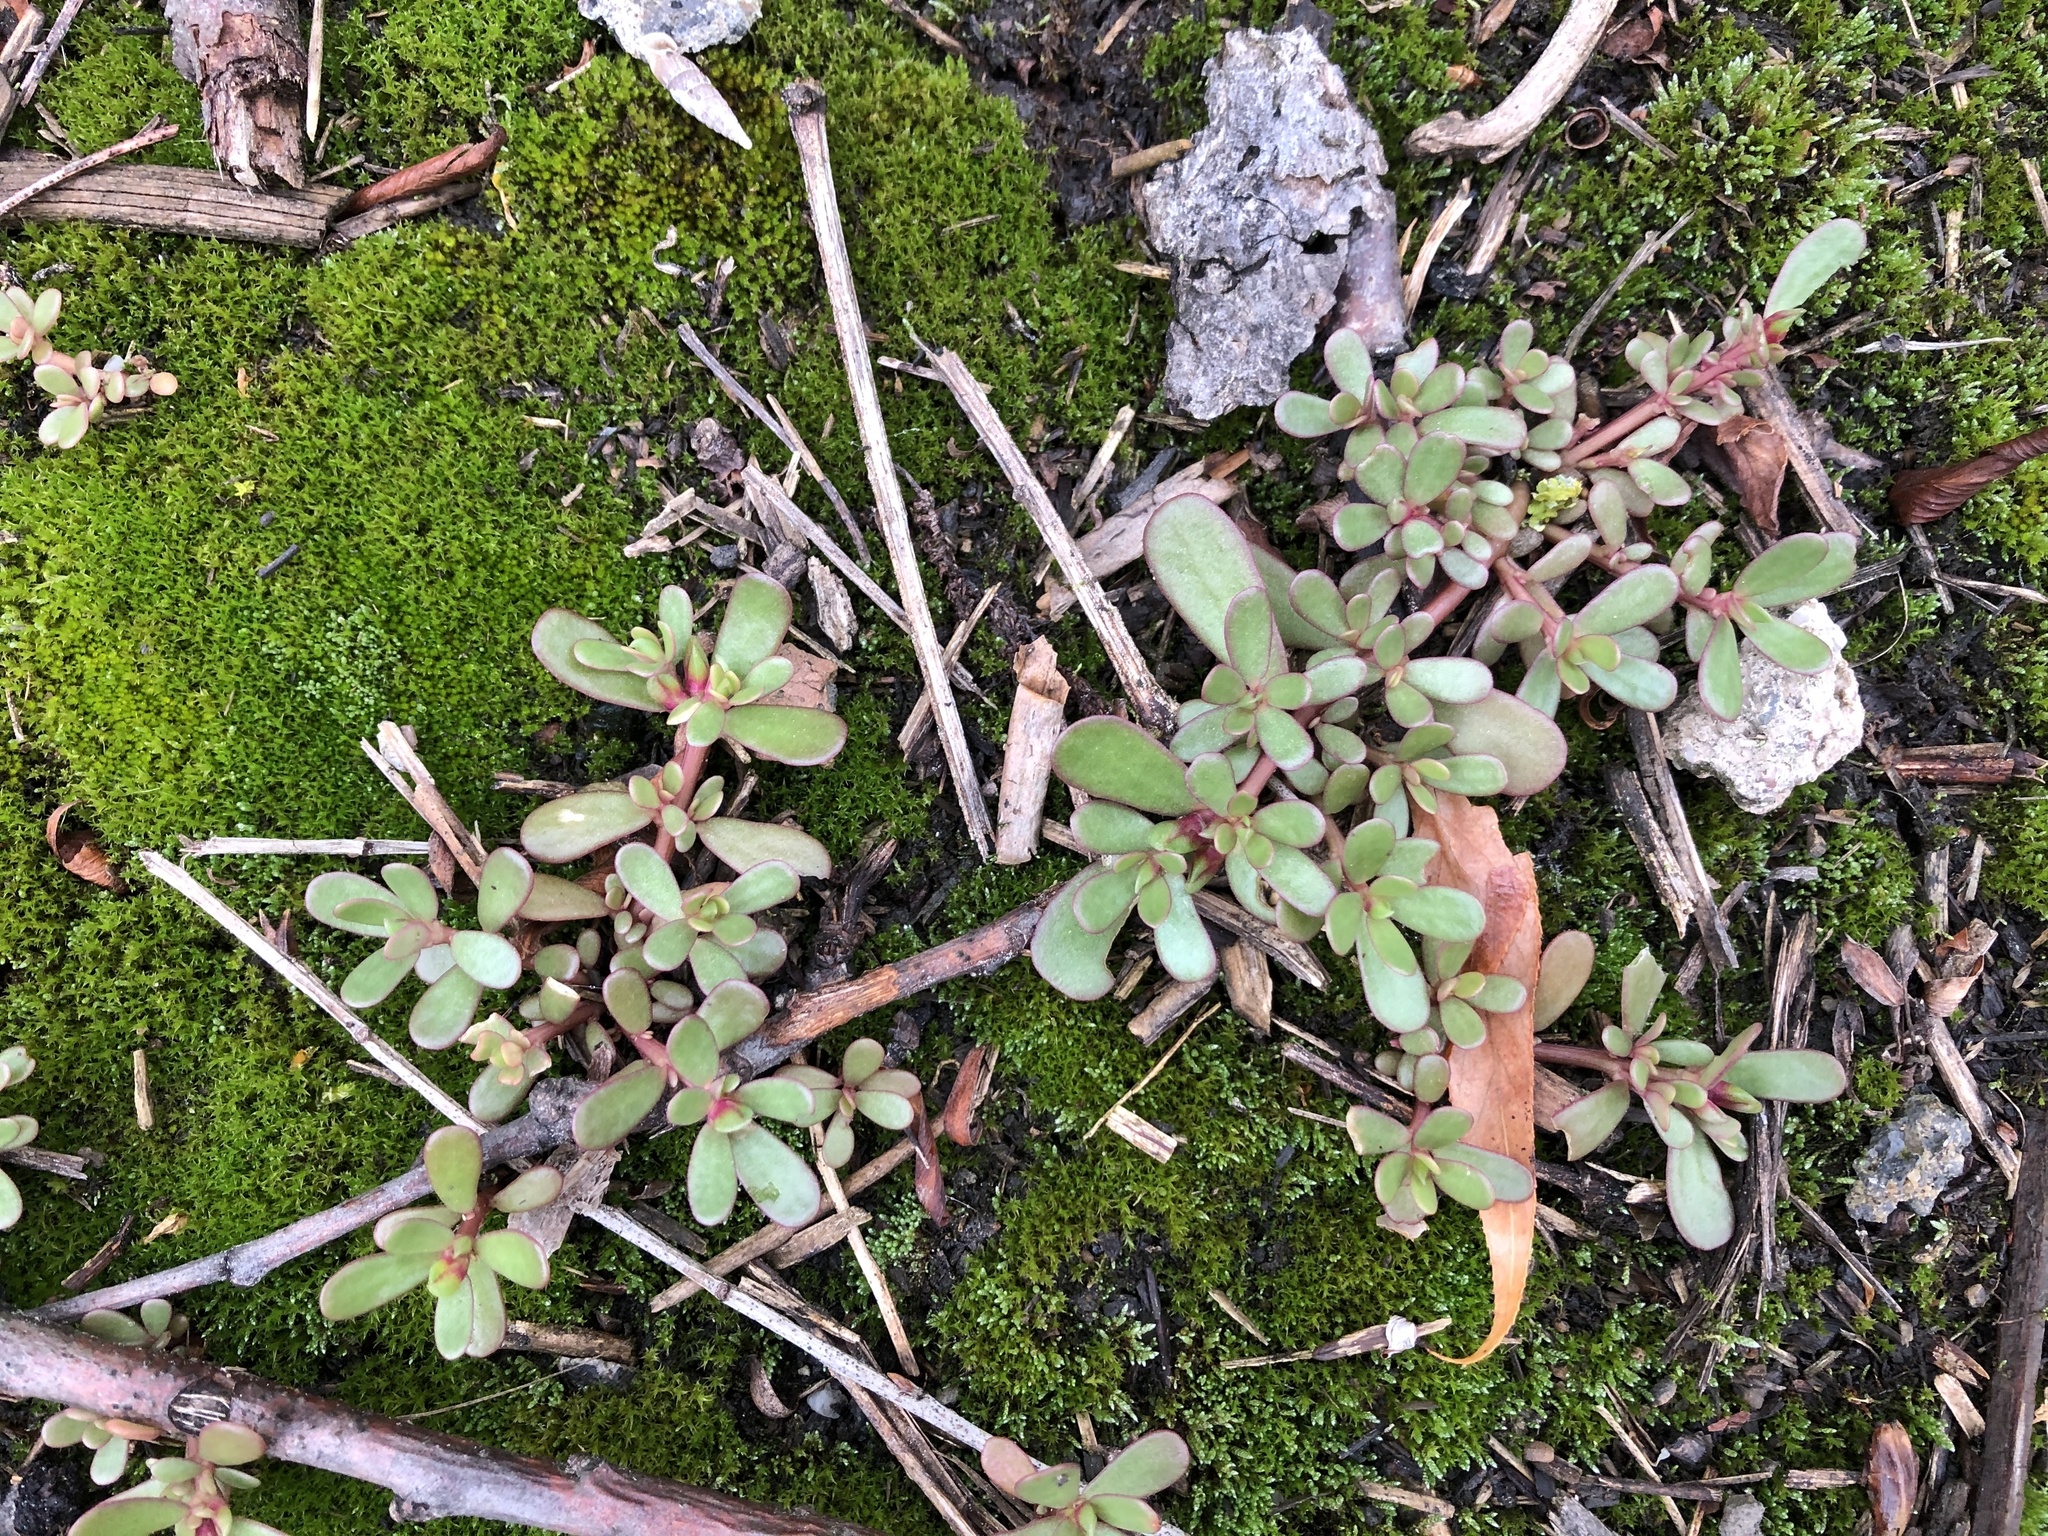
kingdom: Plantae
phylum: Tracheophyta
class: Magnoliopsida
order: Caryophyllales
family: Portulacaceae
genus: Portulaca
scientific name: Portulaca oleracea
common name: Common purslane
